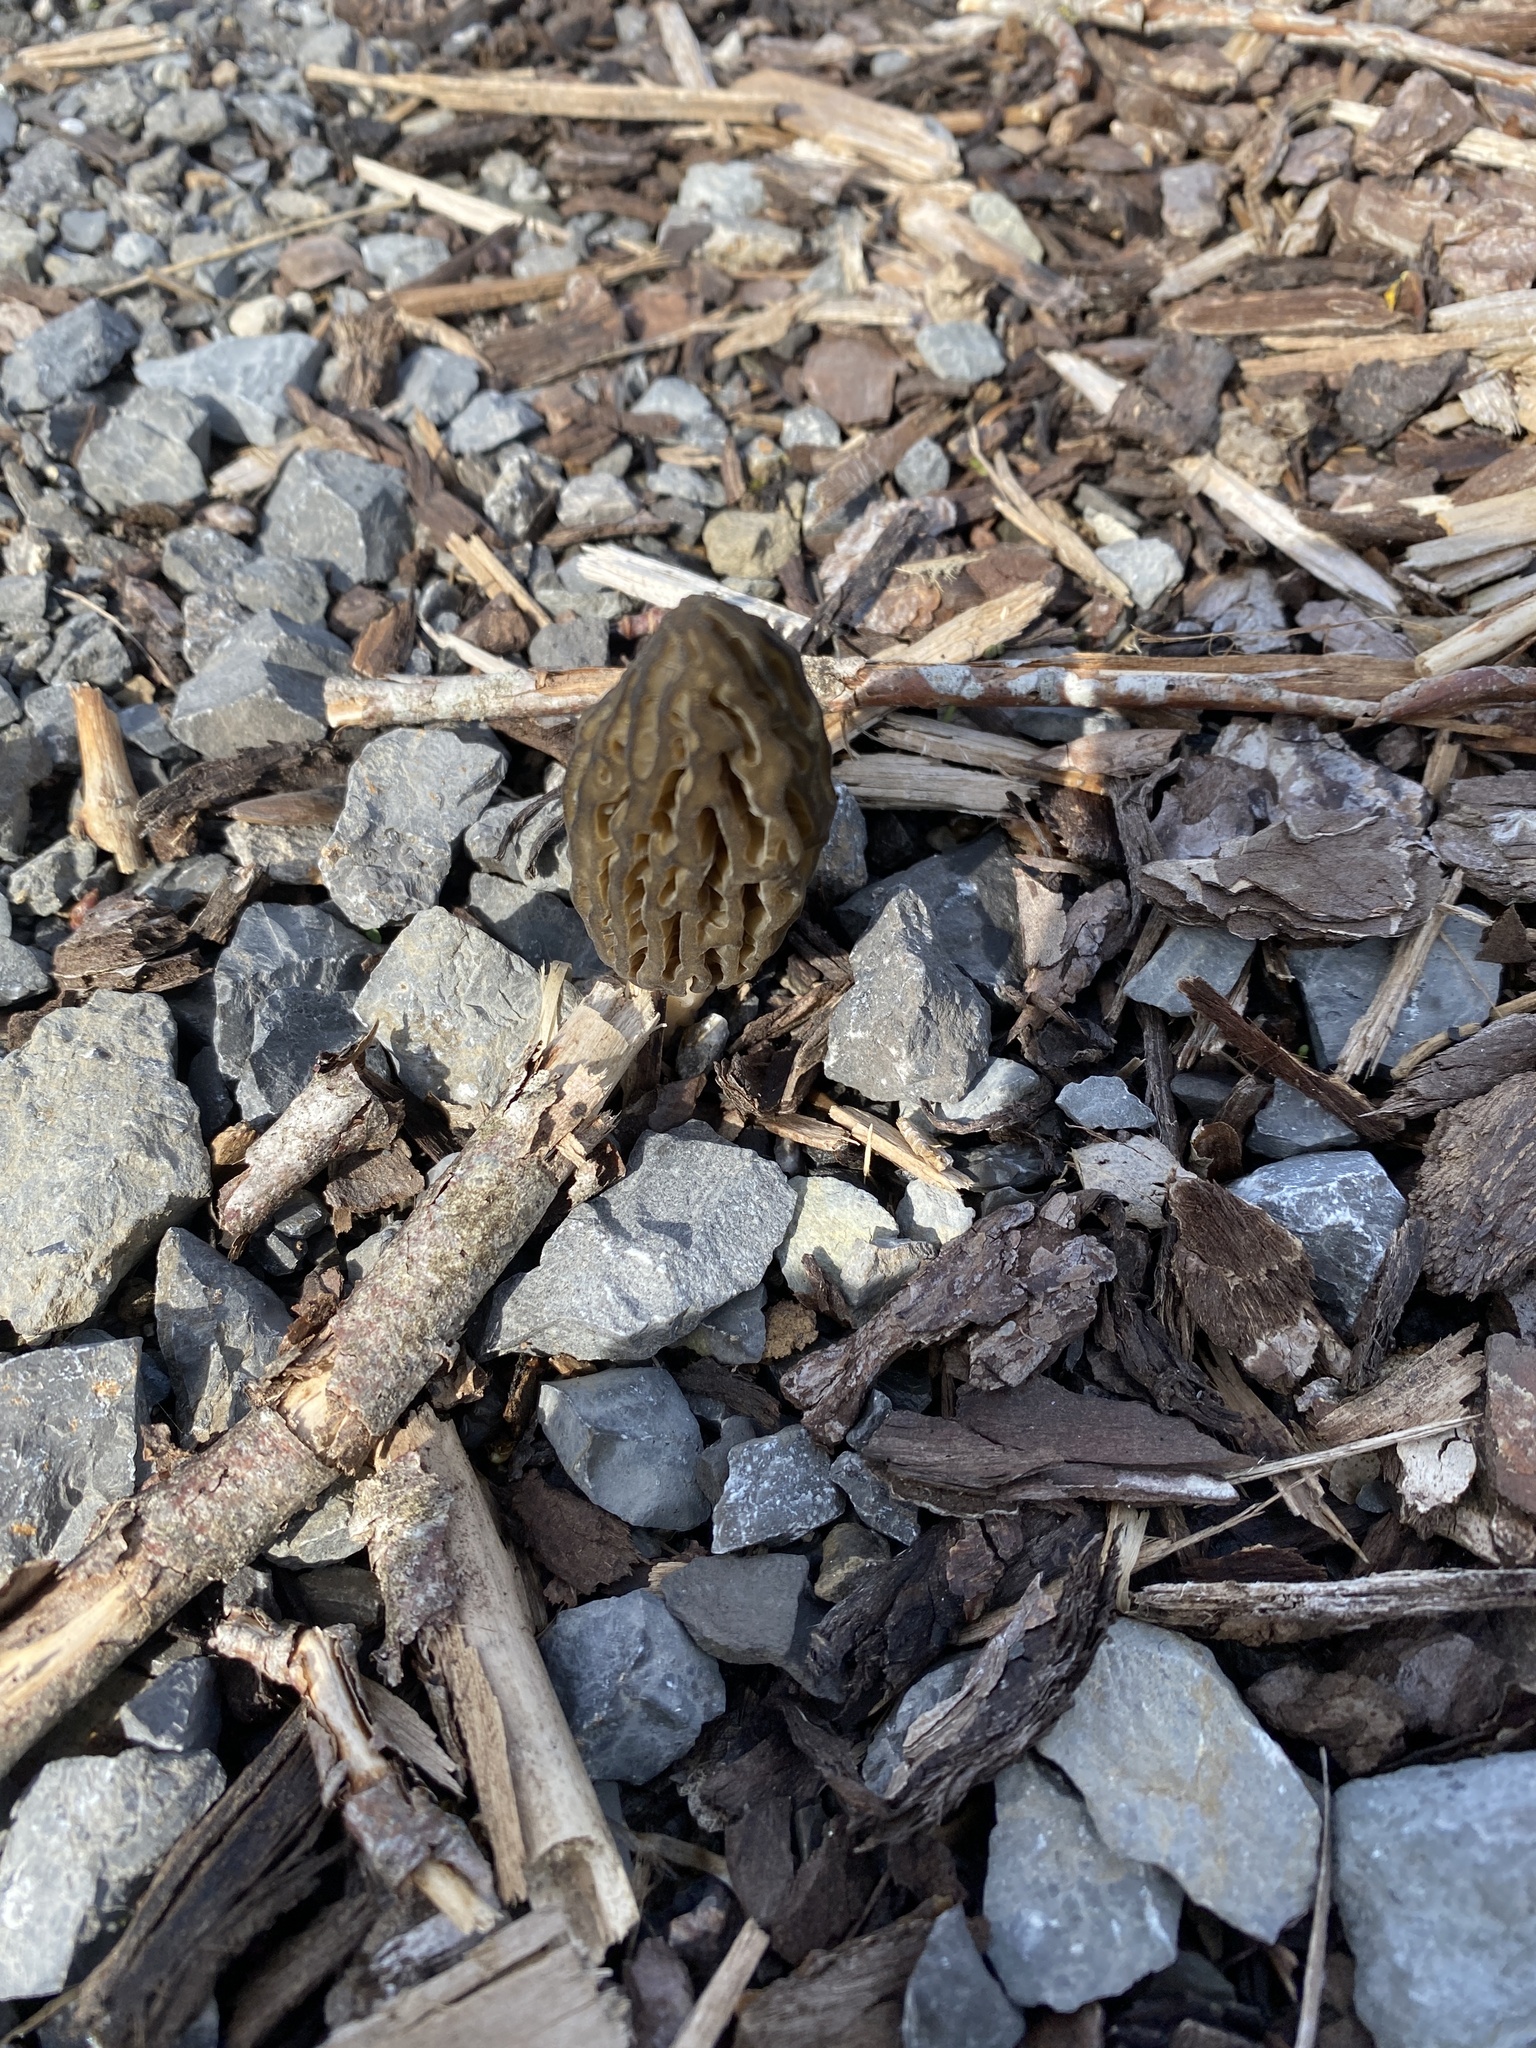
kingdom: Fungi
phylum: Ascomycota
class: Pezizomycetes
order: Pezizales
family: Morchellaceae
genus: Morchella
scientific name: Morchella importuna
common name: Landscaping black morel
